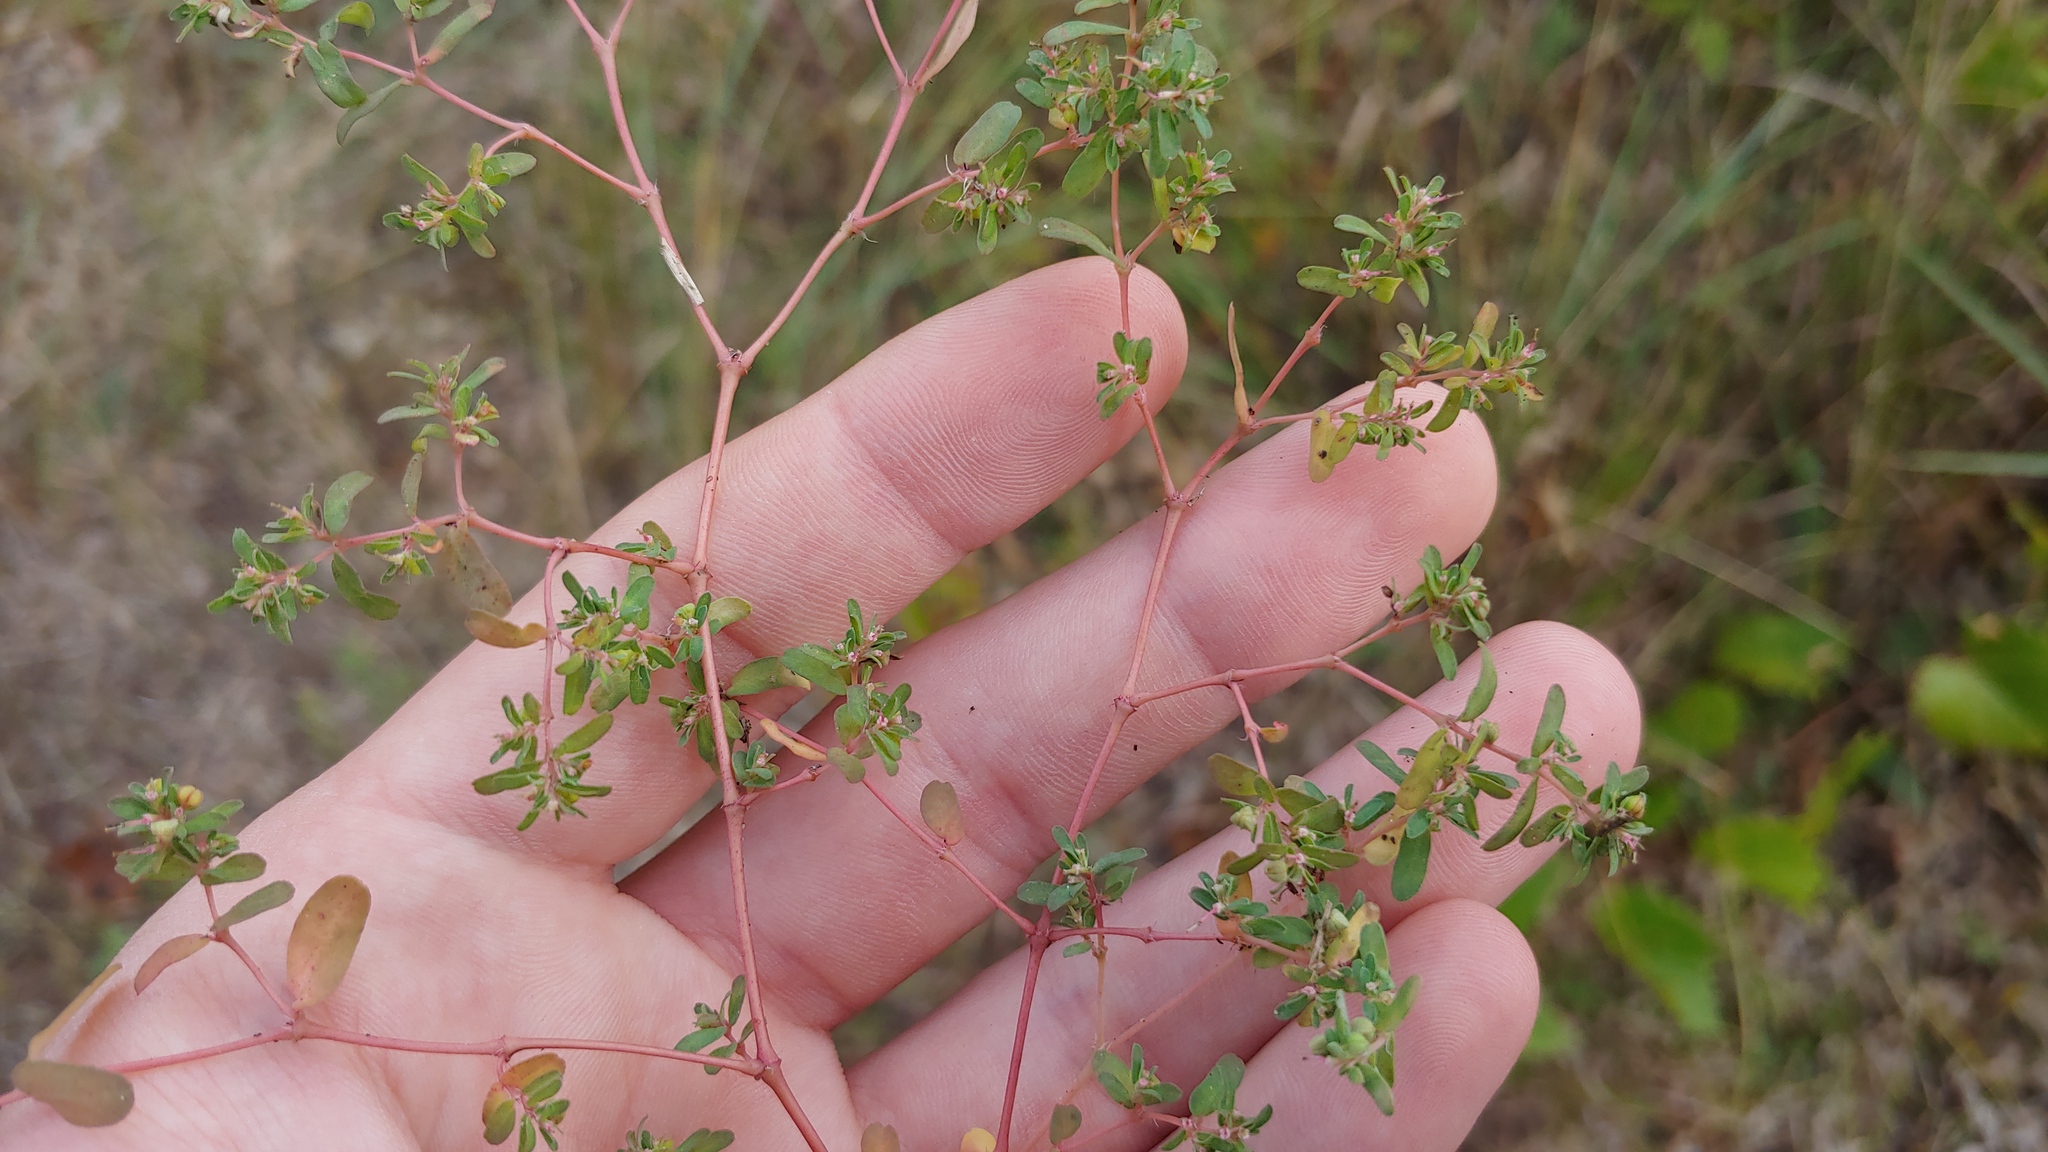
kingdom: Plantae
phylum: Tracheophyta
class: Magnoliopsida
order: Malpighiales
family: Euphorbiaceae
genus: Euphorbia
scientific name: Euphorbia glyptosperma
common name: Corrugate-seeded spurge
